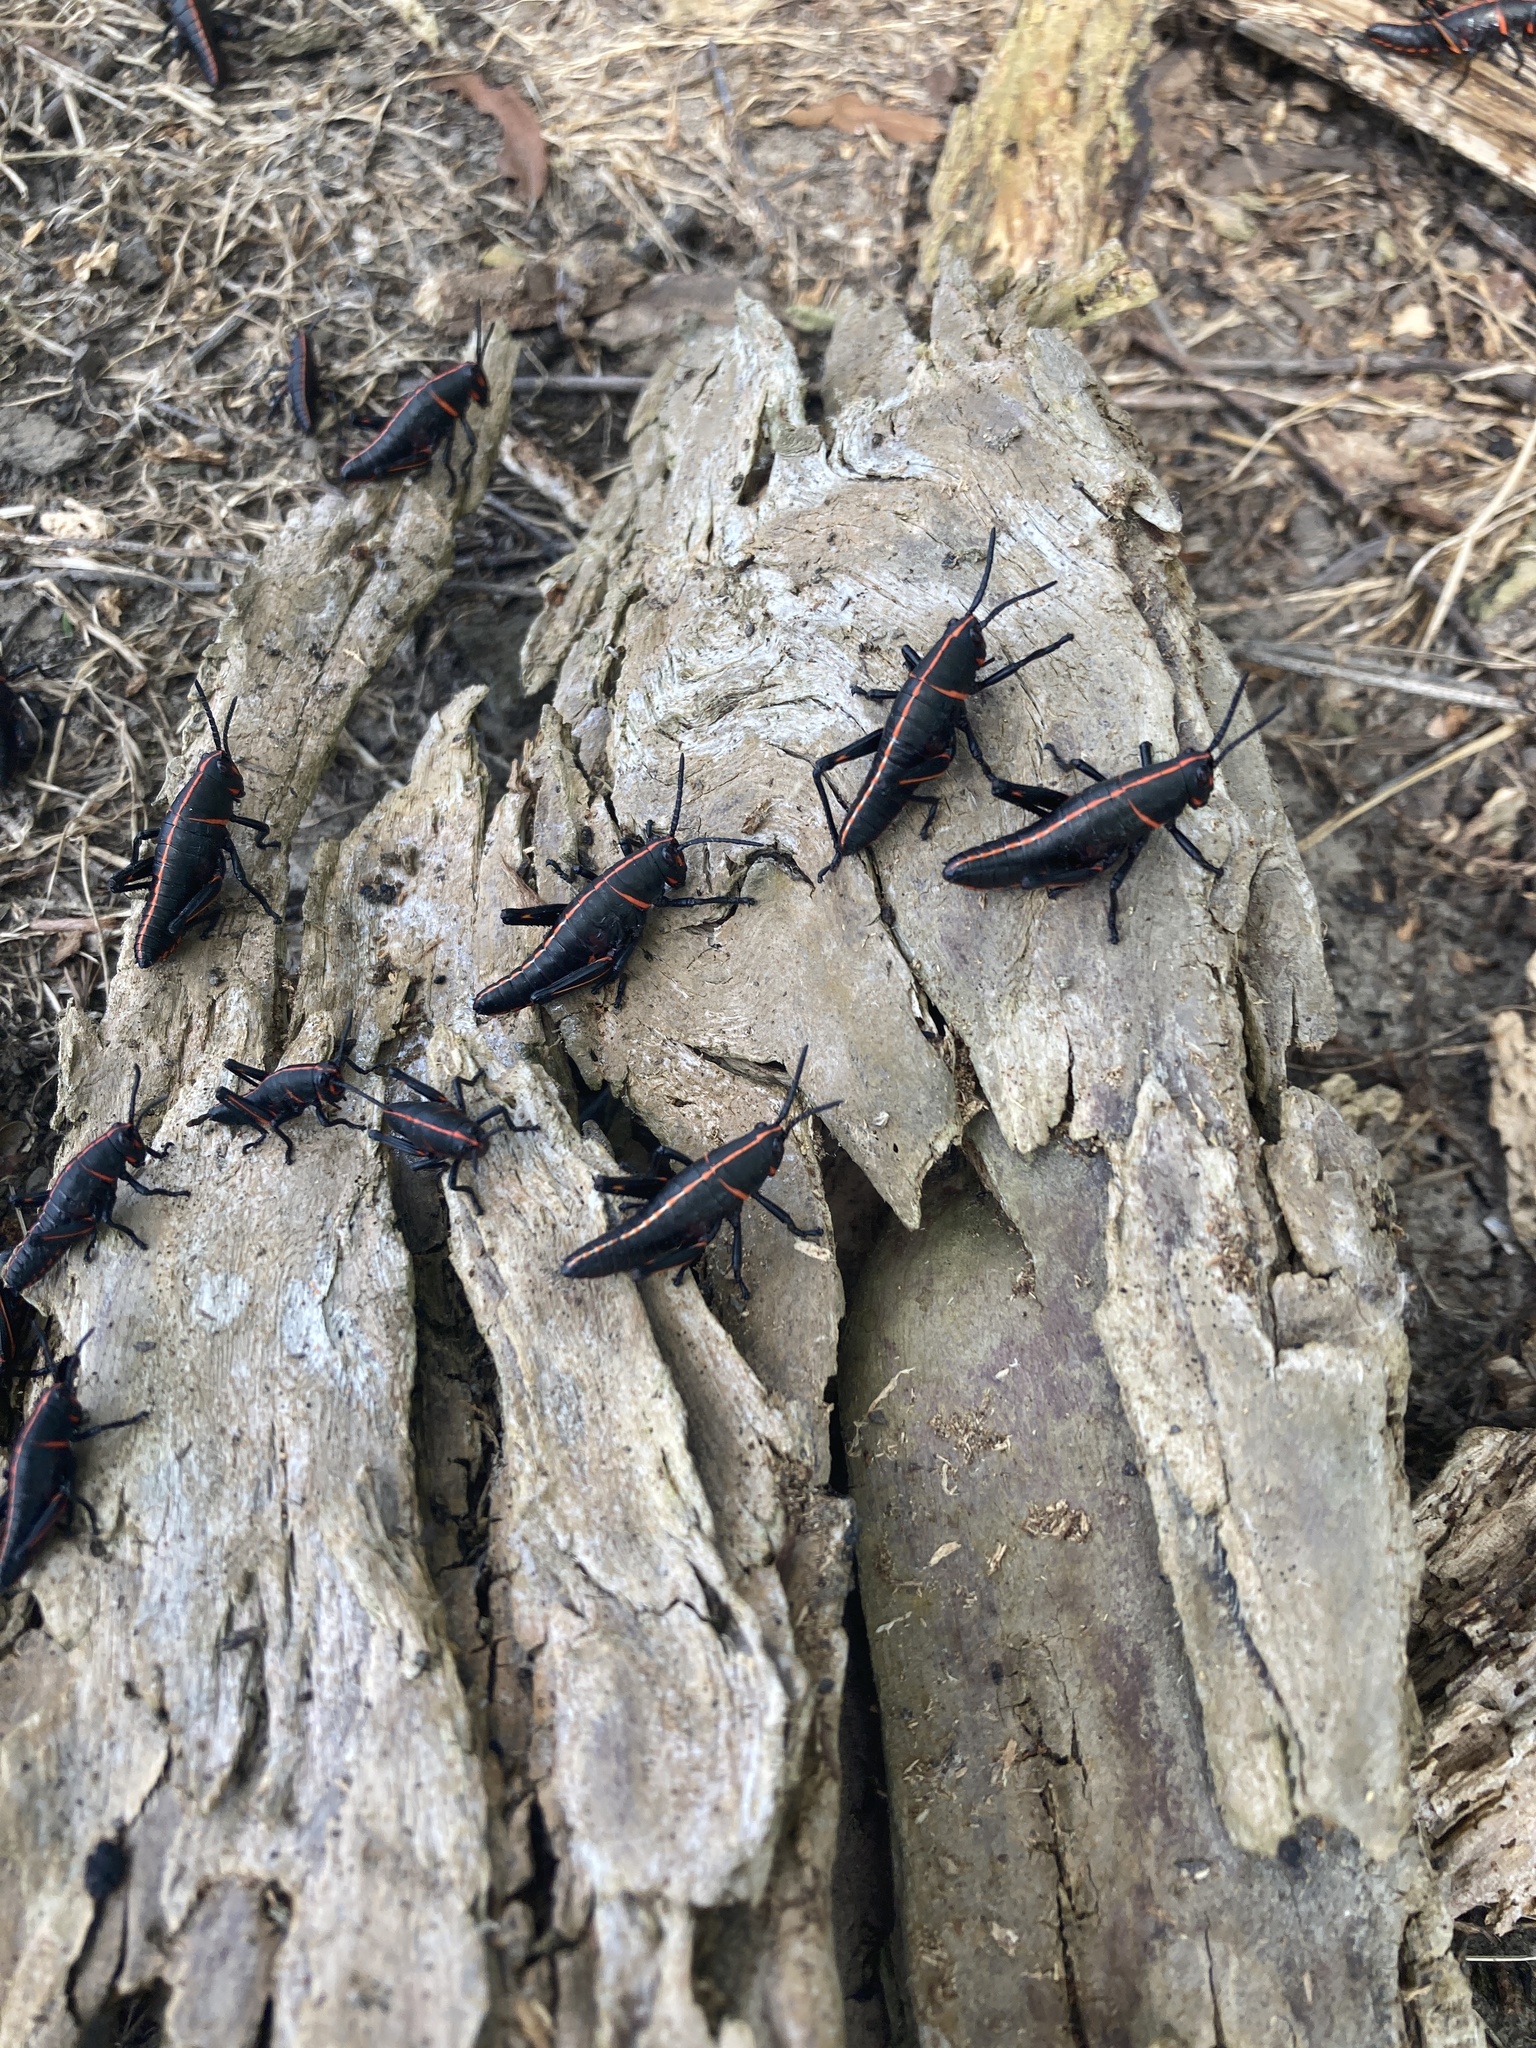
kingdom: Animalia
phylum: Arthropoda
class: Insecta
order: Orthoptera
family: Romaleidae
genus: Romalea
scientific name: Romalea microptera
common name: Eastern lubber grasshopper
